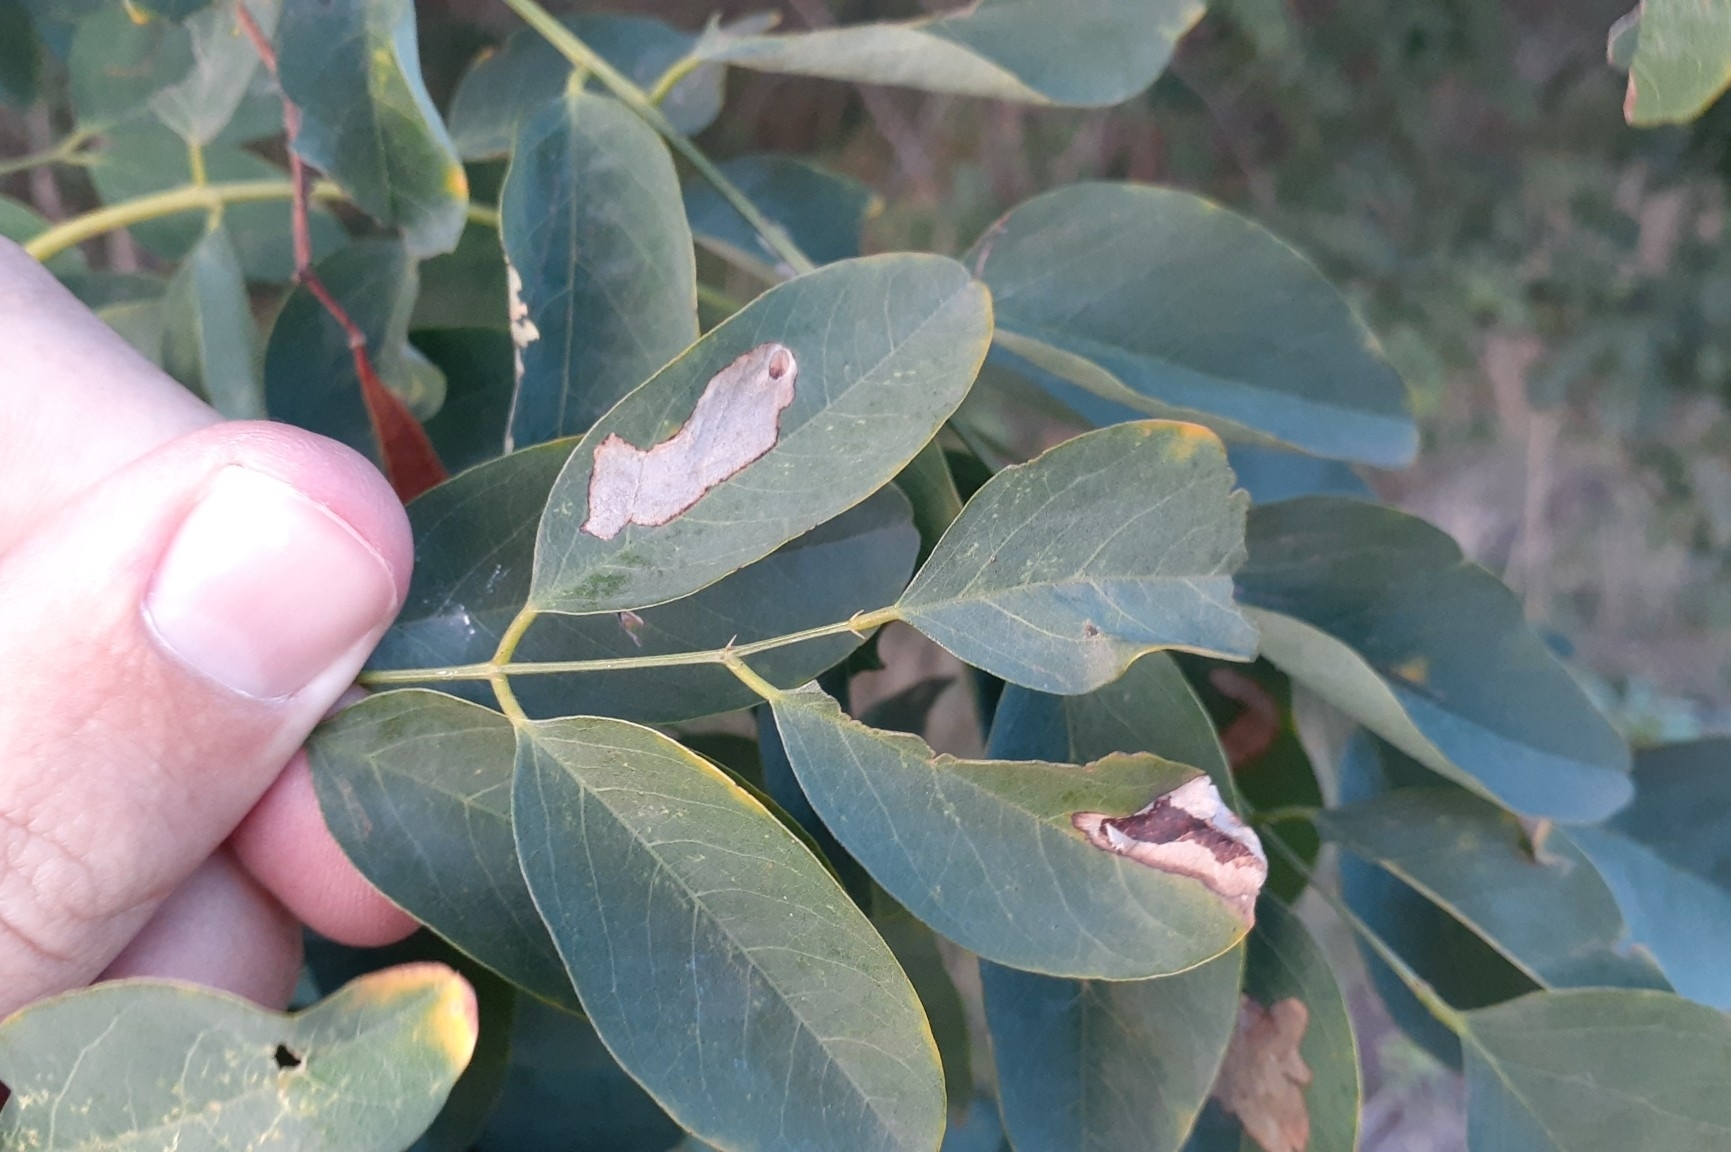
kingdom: Animalia
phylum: Arthropoda
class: Insecta
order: Lepidoptera
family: Gracillariidae
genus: Chrysaster
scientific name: Chrysaster ostensackenella
